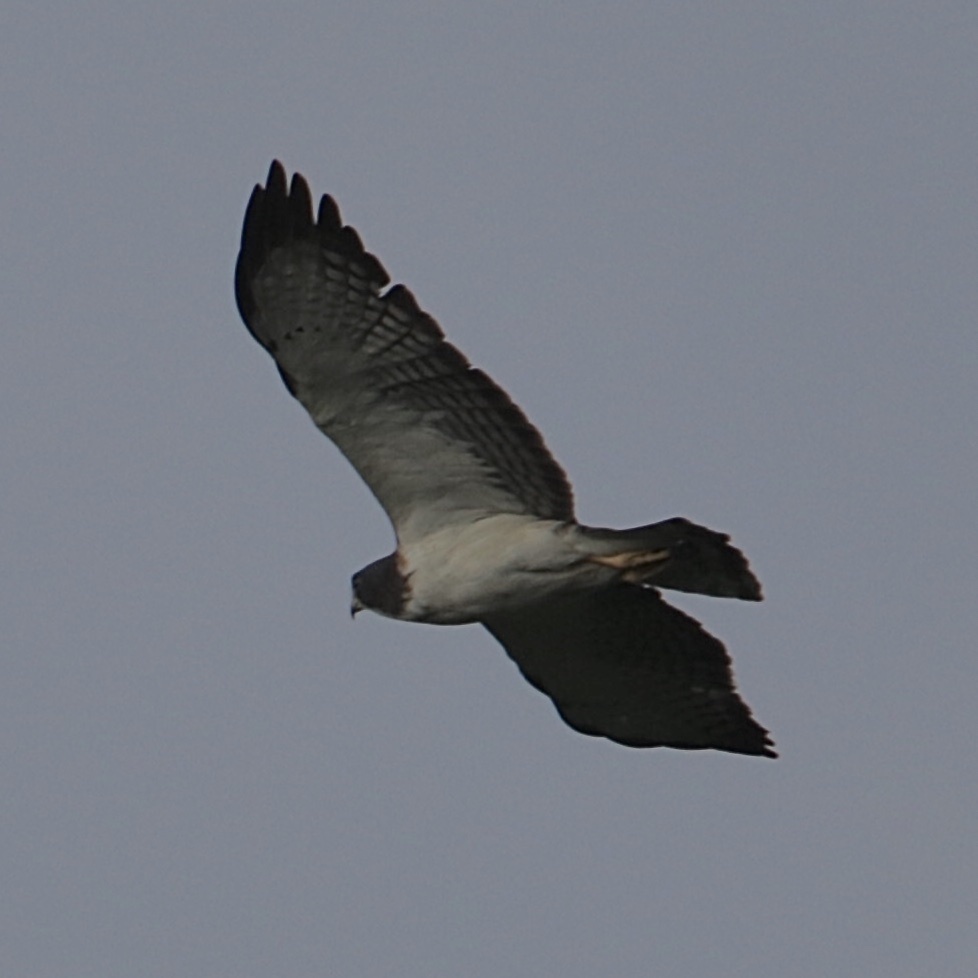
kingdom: Animalia
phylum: Chordata
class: Aves
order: Accipitriformes
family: Accipitridae
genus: Buteo
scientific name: Buteo brachyurus
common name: Short-tailed hawk
